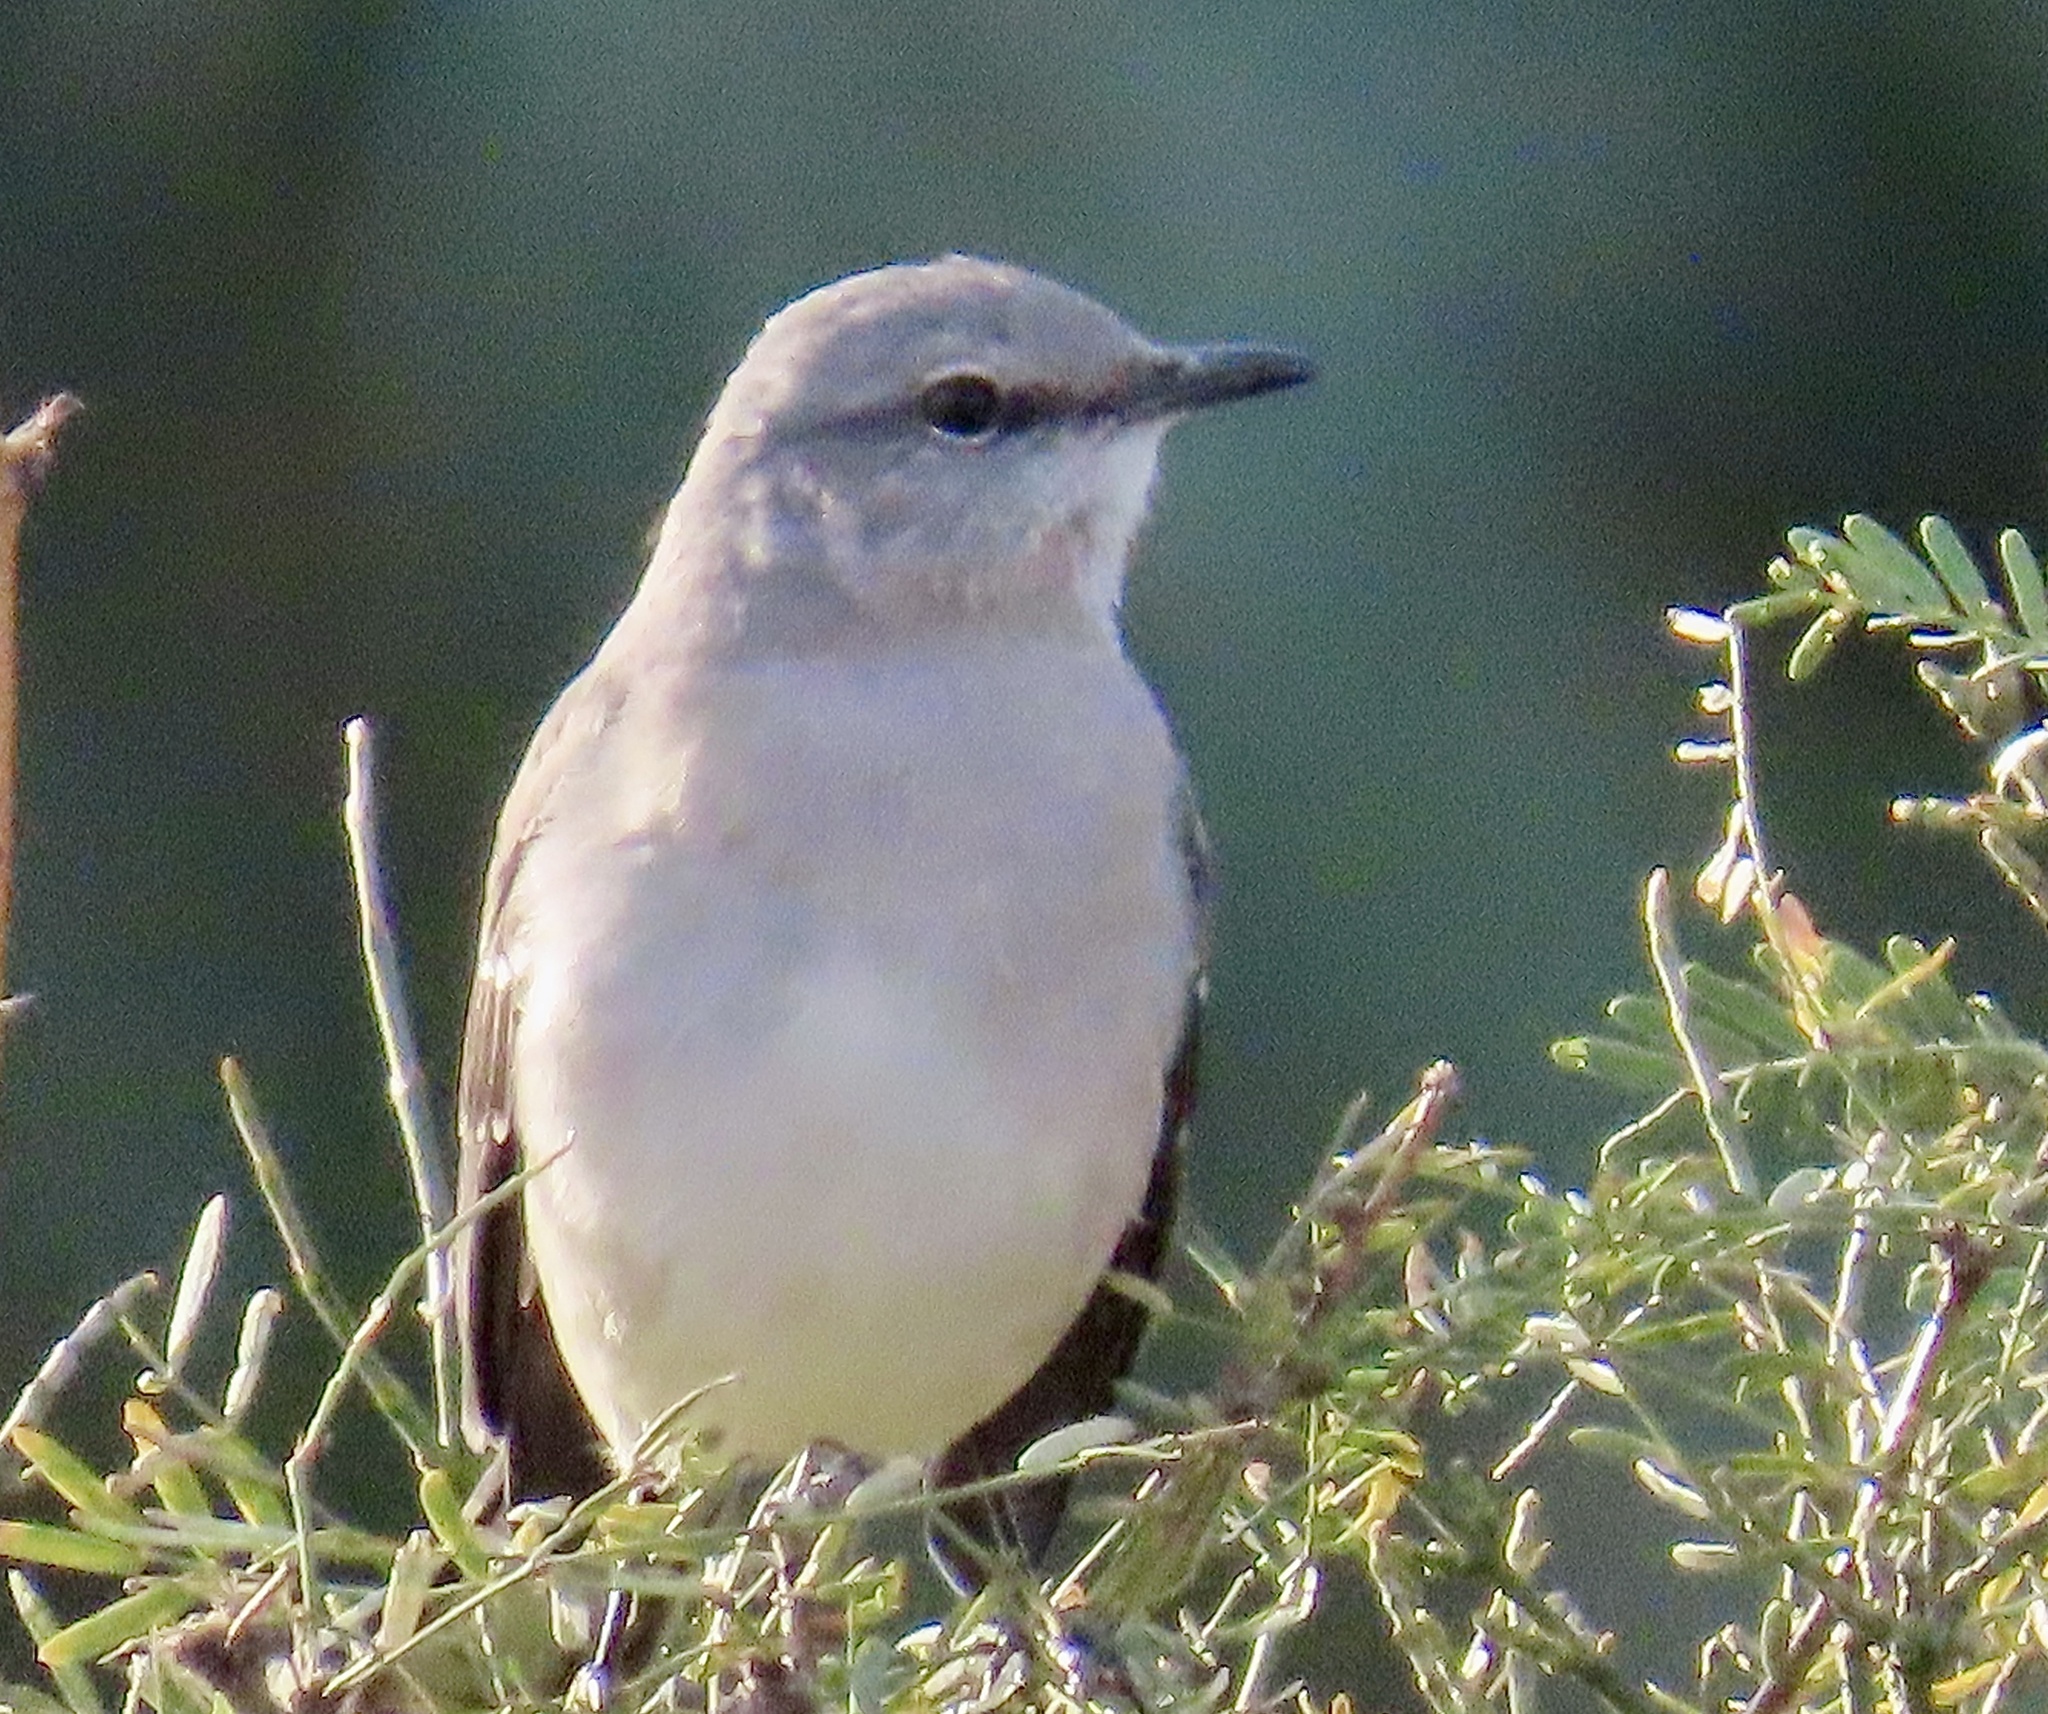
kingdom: Animalia
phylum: Chordata
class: Aves
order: Passeriformes
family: Mimidae
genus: Mimus
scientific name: Mimus polyglottos
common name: Northern mockingbird
